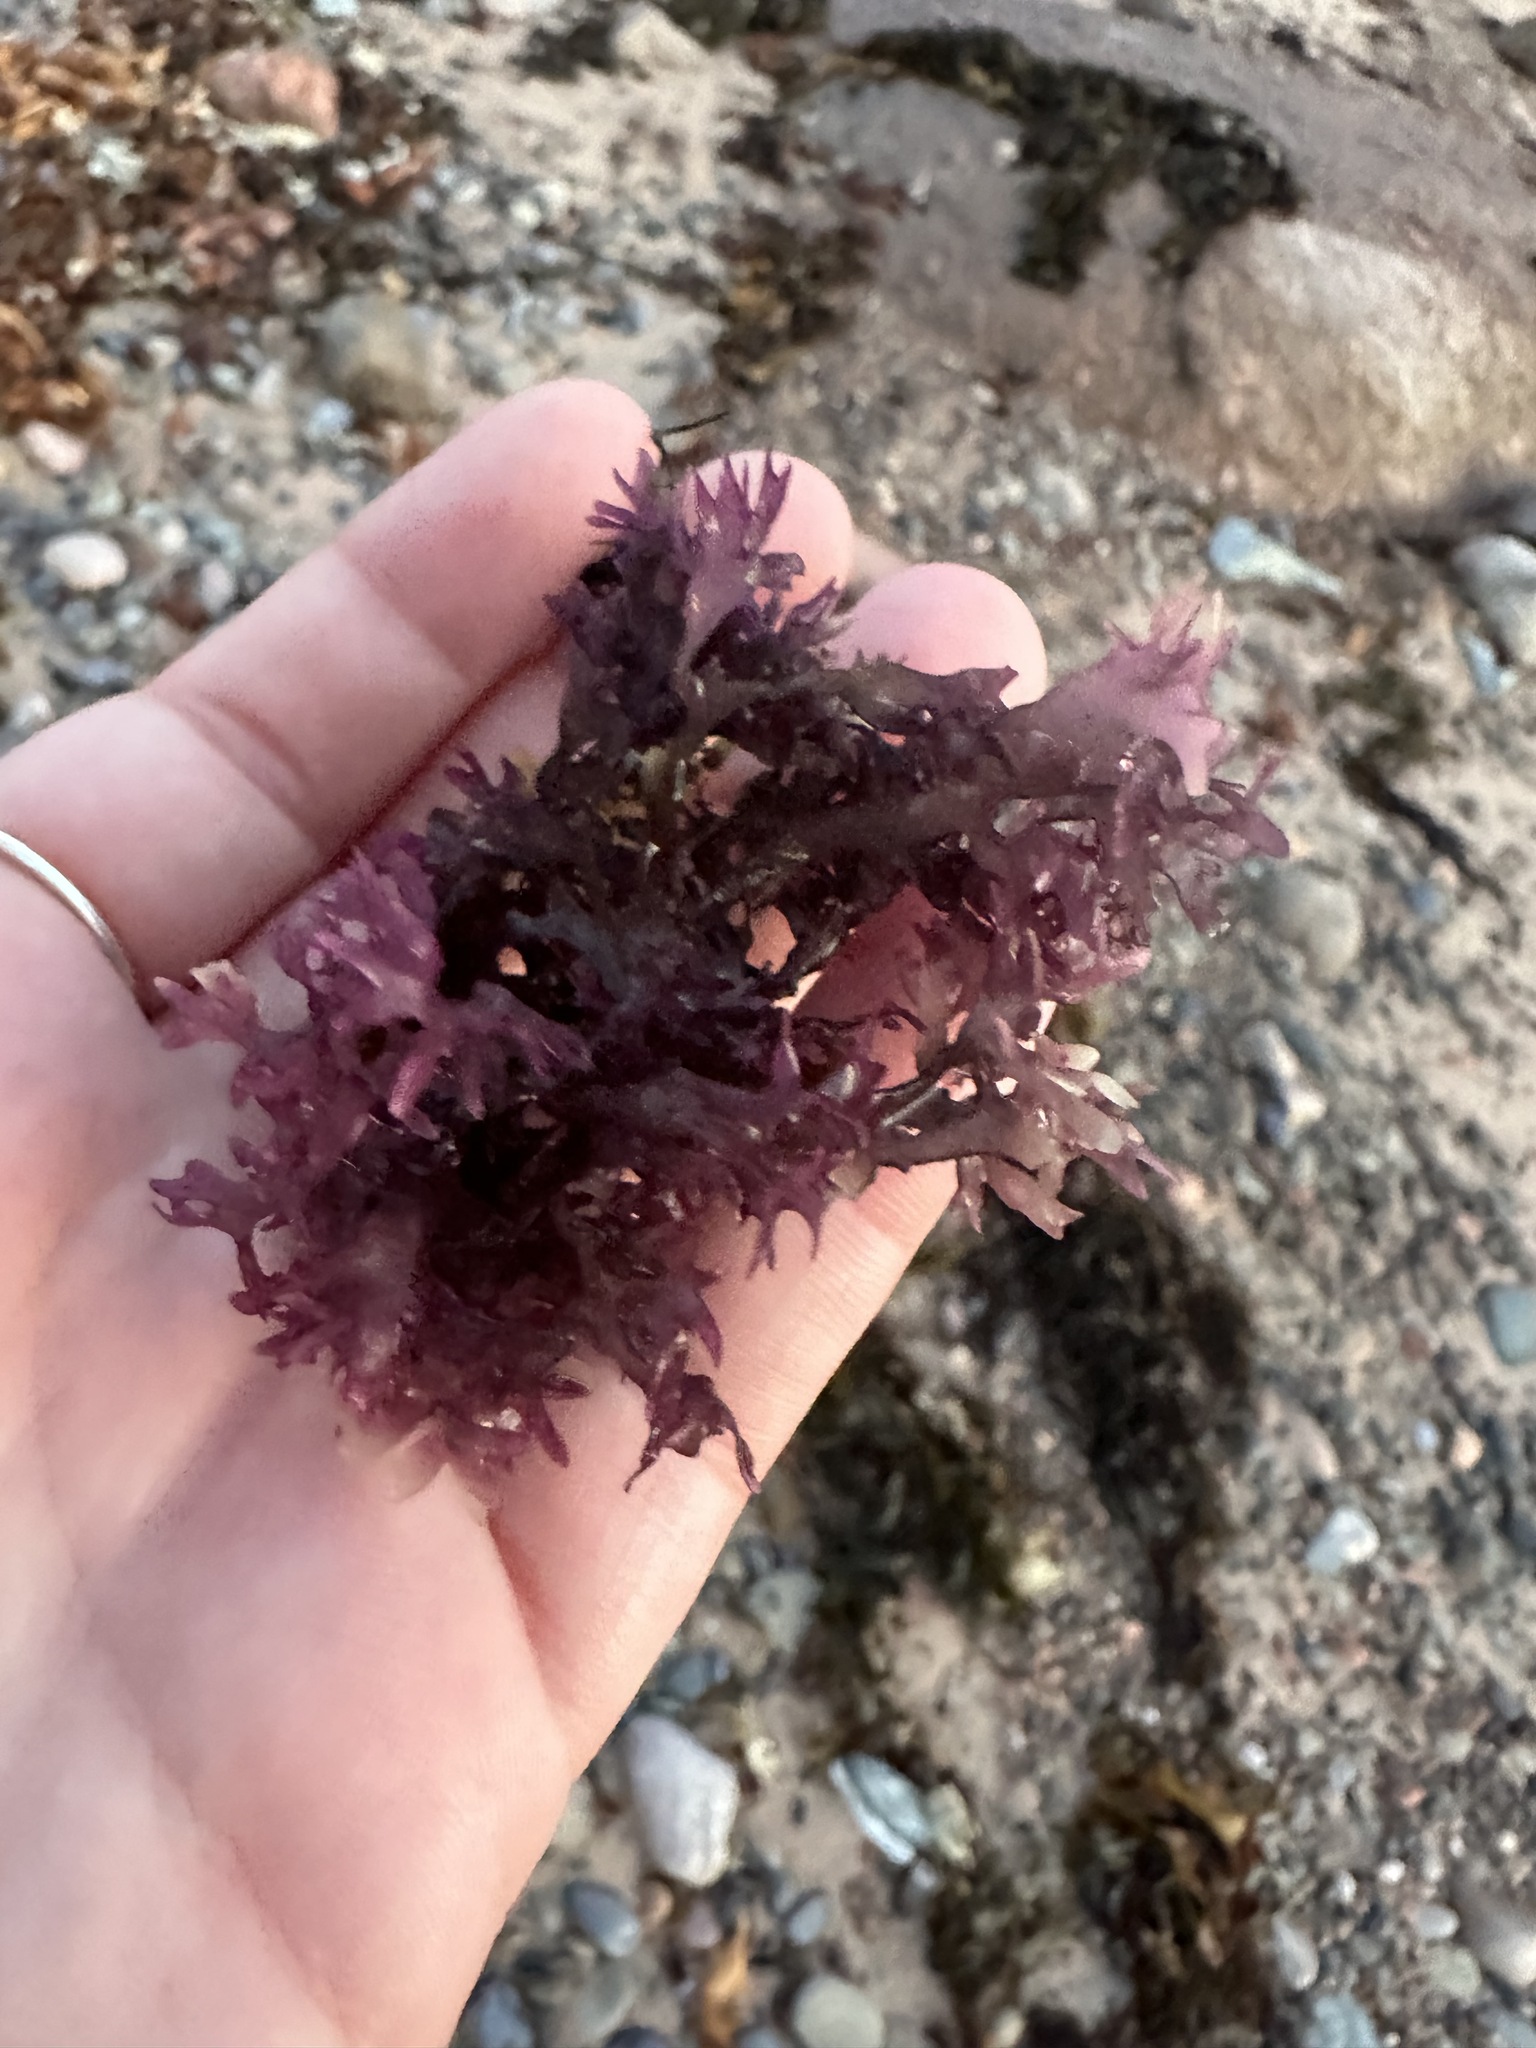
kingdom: Plantae
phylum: Rhodophyta
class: Florideophyceae
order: Gigartinales
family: Gigartinaceae
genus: Chondrus
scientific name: Chondrus crispus
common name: Carrageen
